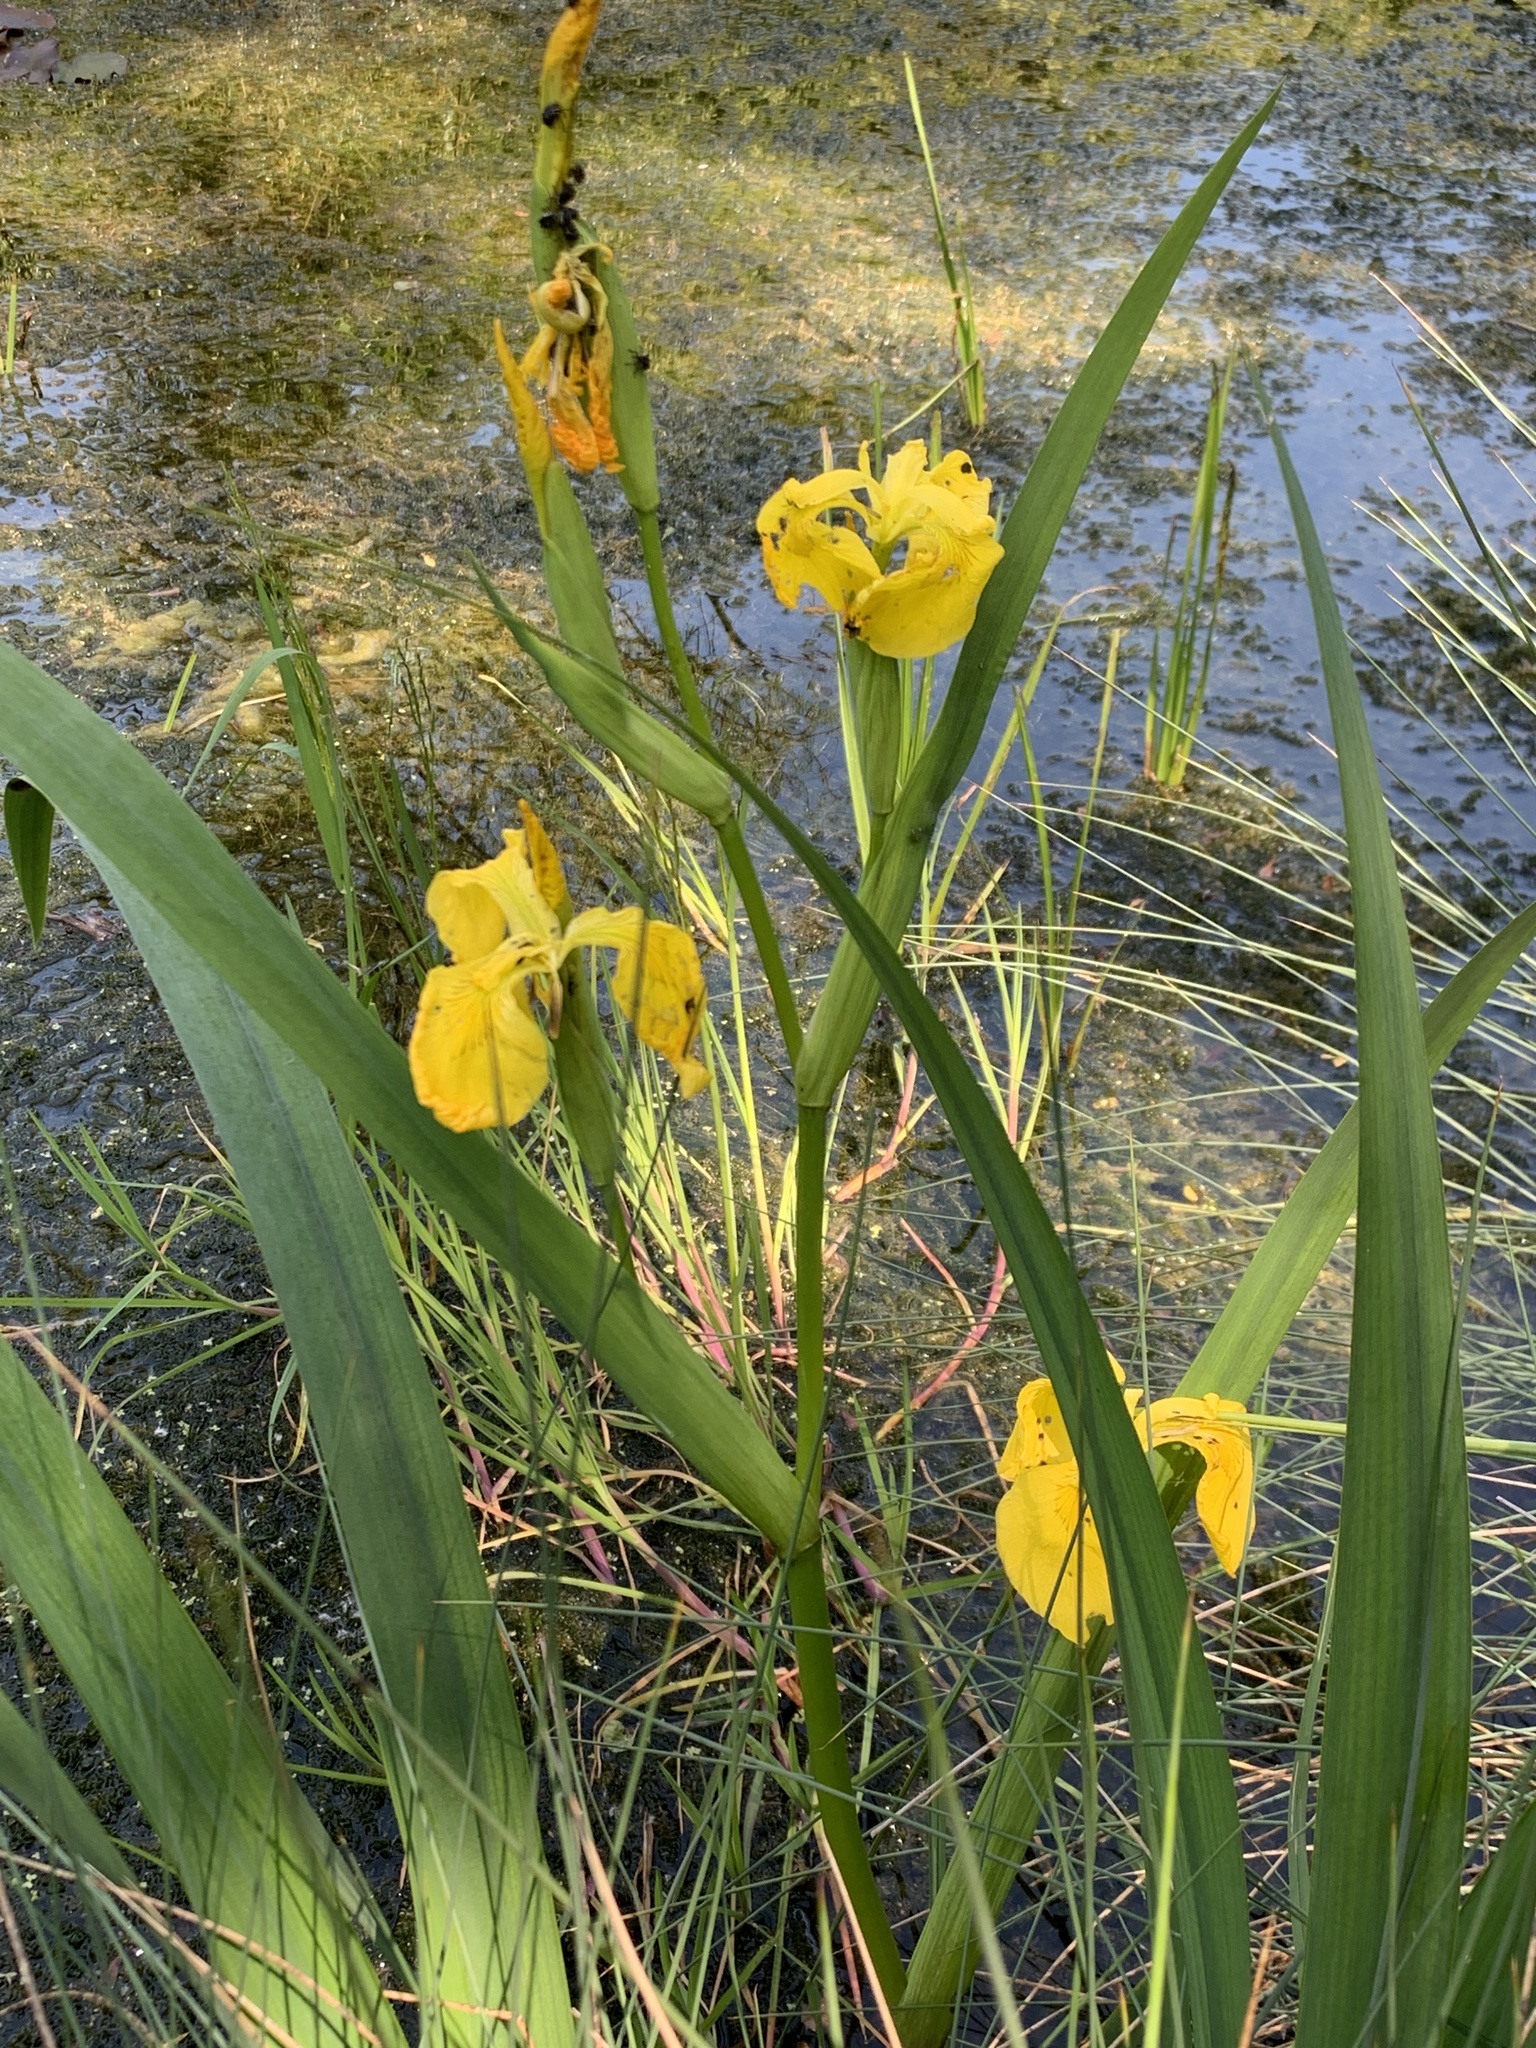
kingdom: Plantae
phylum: Tracheophyta
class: Liliopsida
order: Asparagales
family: Iridaceae
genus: Iris
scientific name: Iris pseudacorus
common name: Yellow flag
